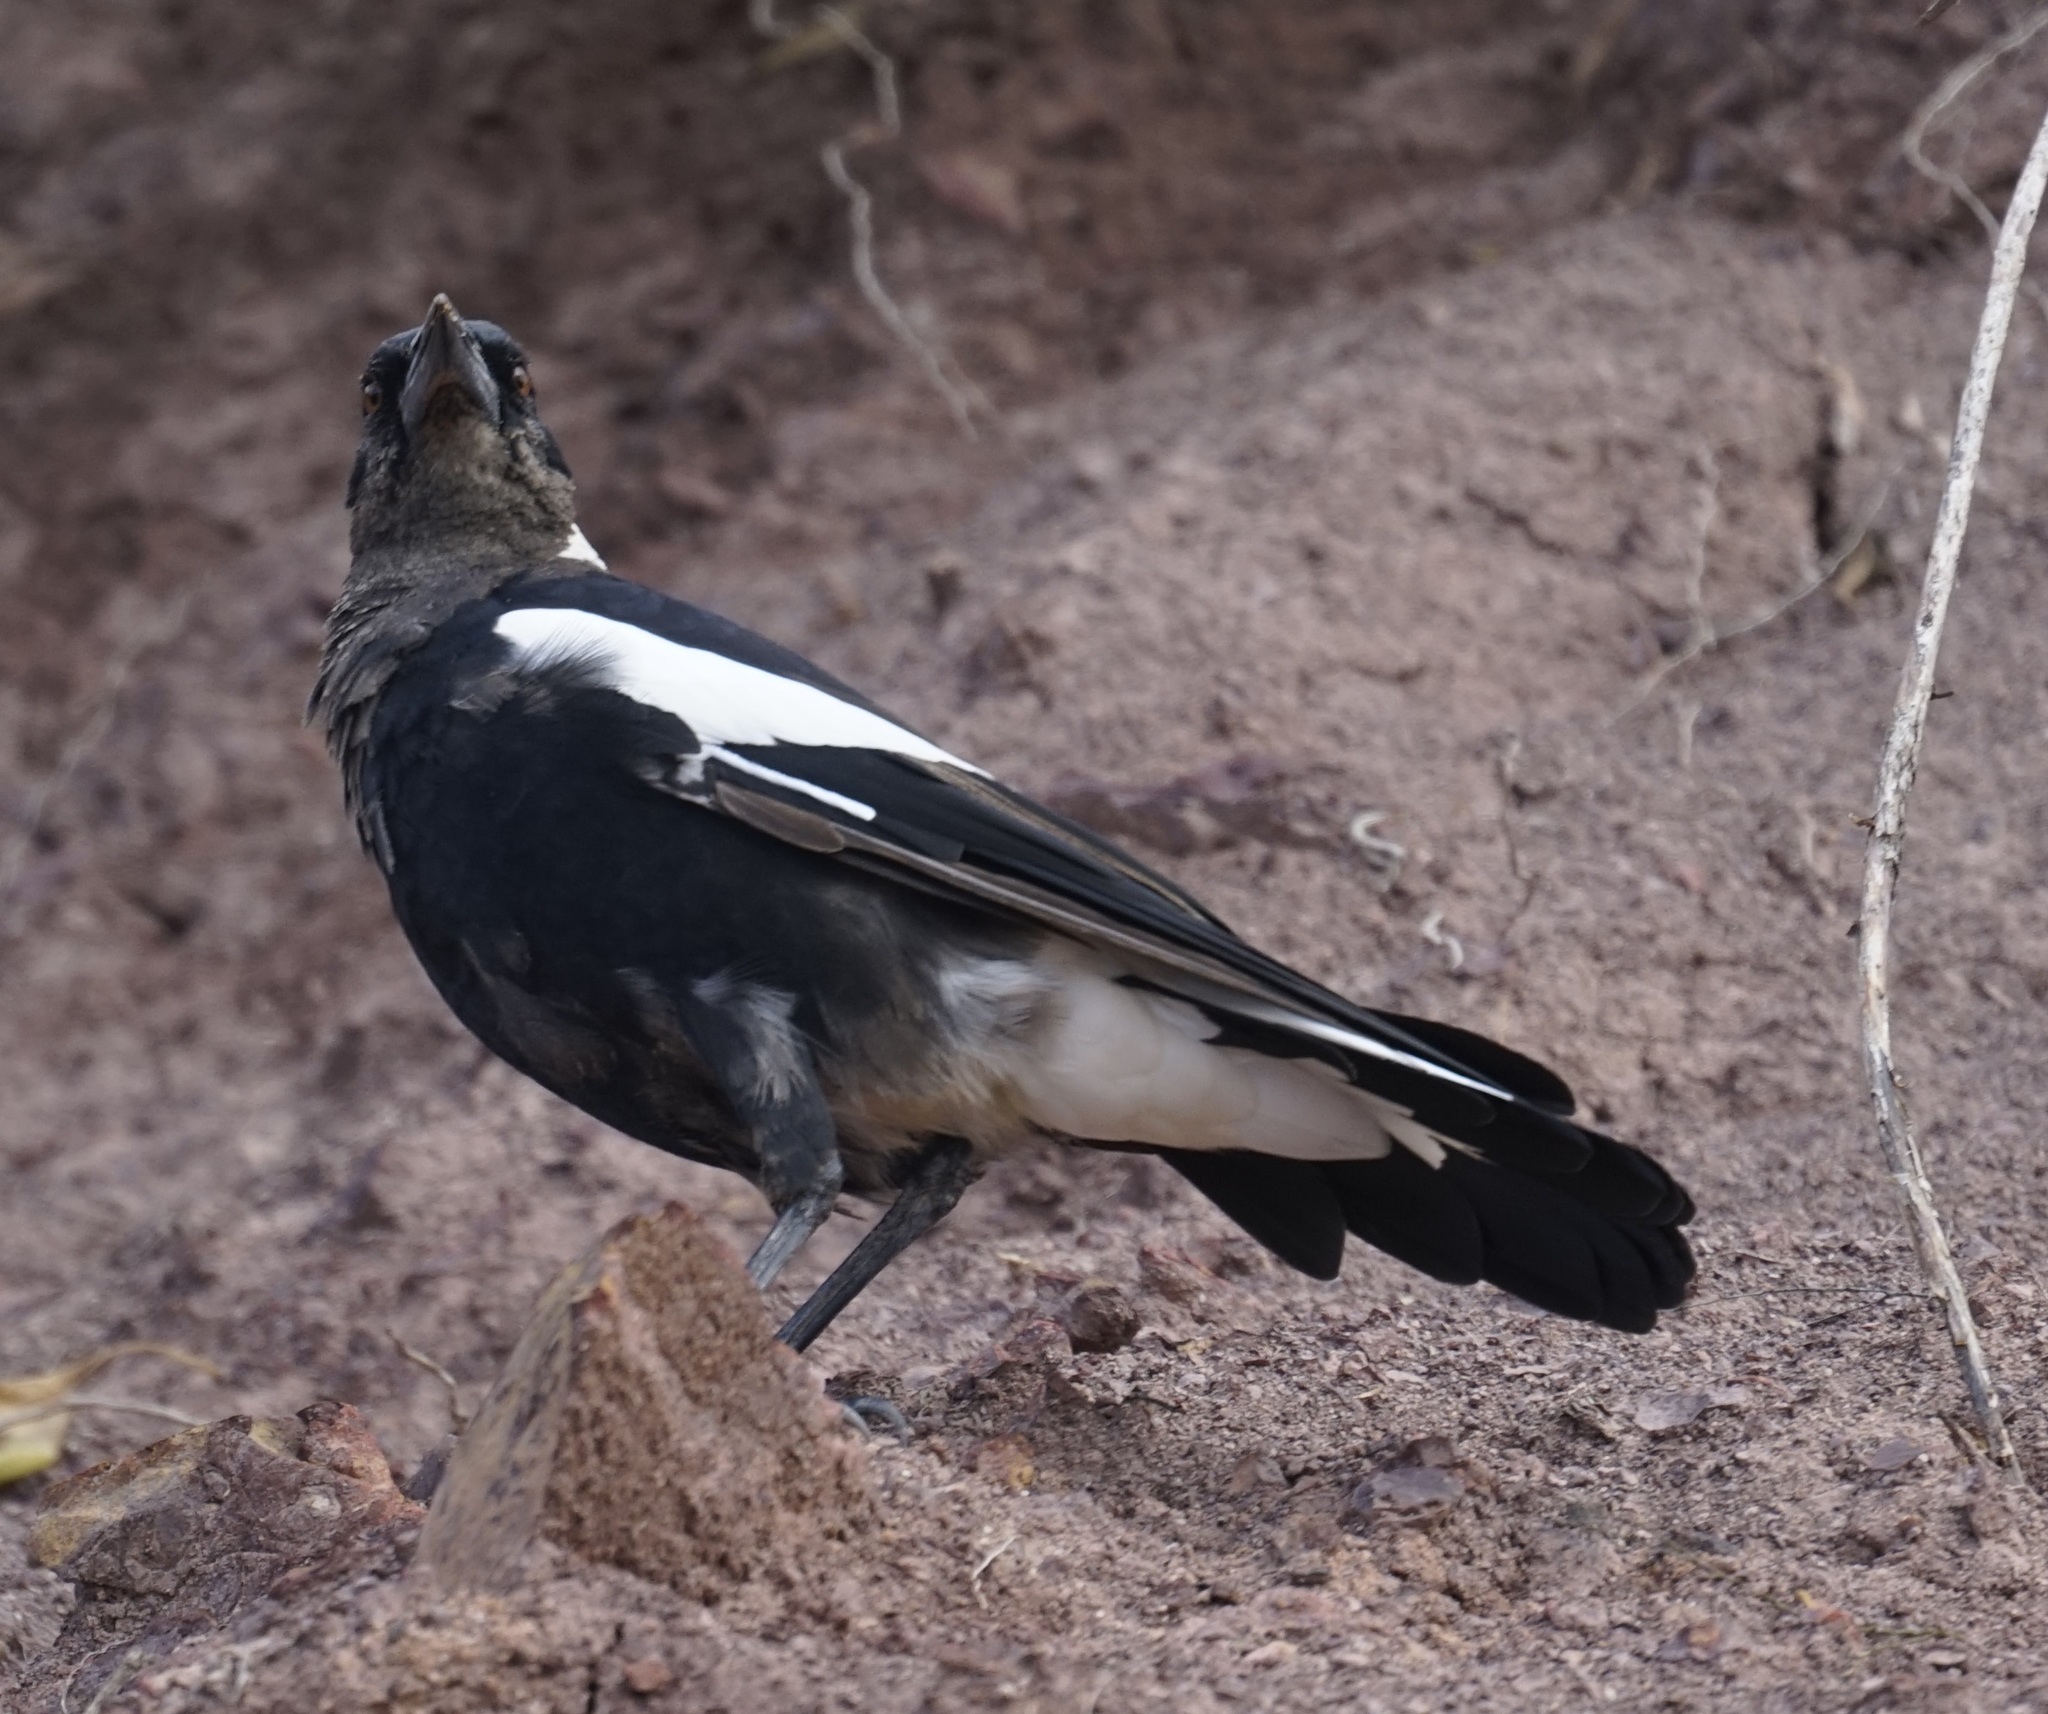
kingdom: Animalia
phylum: Chordata
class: Aves
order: Passeriformes
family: Cracticidae
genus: Gymnorhina
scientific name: Gymnorhina tibicen
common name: Australian magpie
